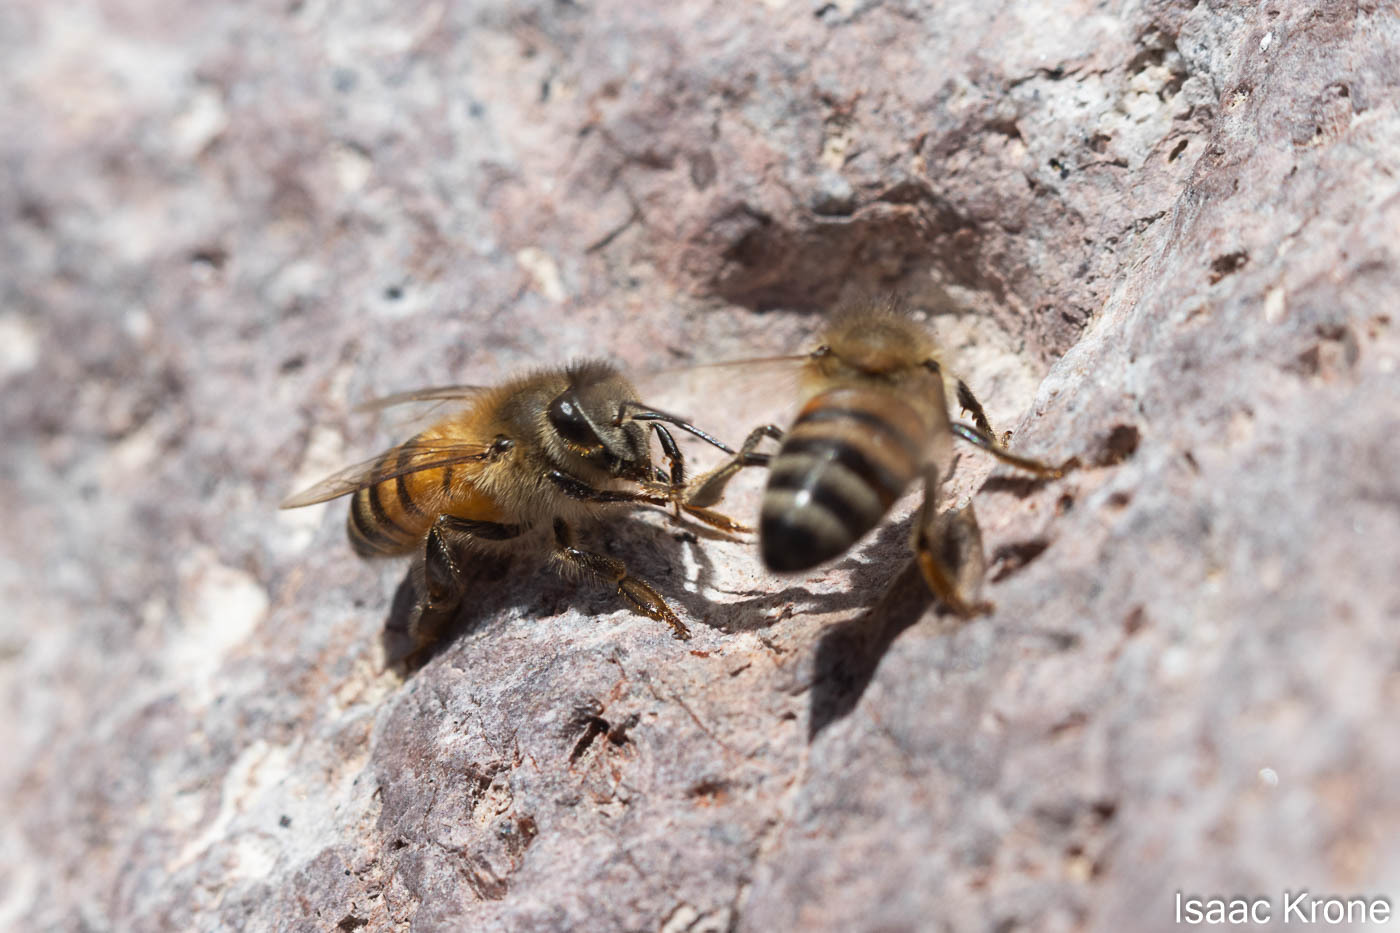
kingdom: Animalia
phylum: Arthropoda
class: Insecta
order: Hymenoptera
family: Apidae
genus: Apis
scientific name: Apis mellifera
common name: Honey bee
